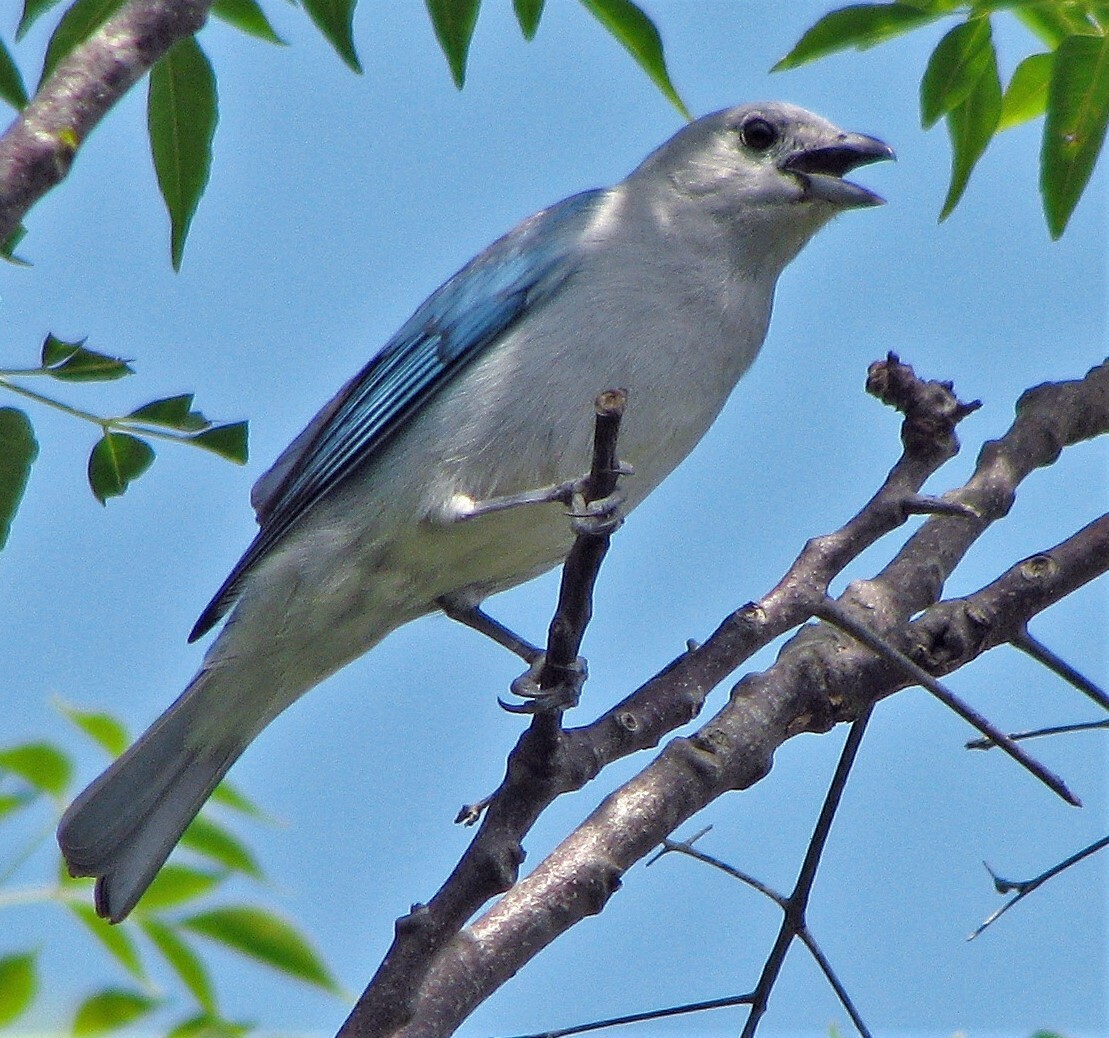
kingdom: Animalia
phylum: Chordata
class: Aves
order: Passeriformes
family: Thraupidae
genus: Thraupis
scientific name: Thraupis sayaca
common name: Sayaca tanager
